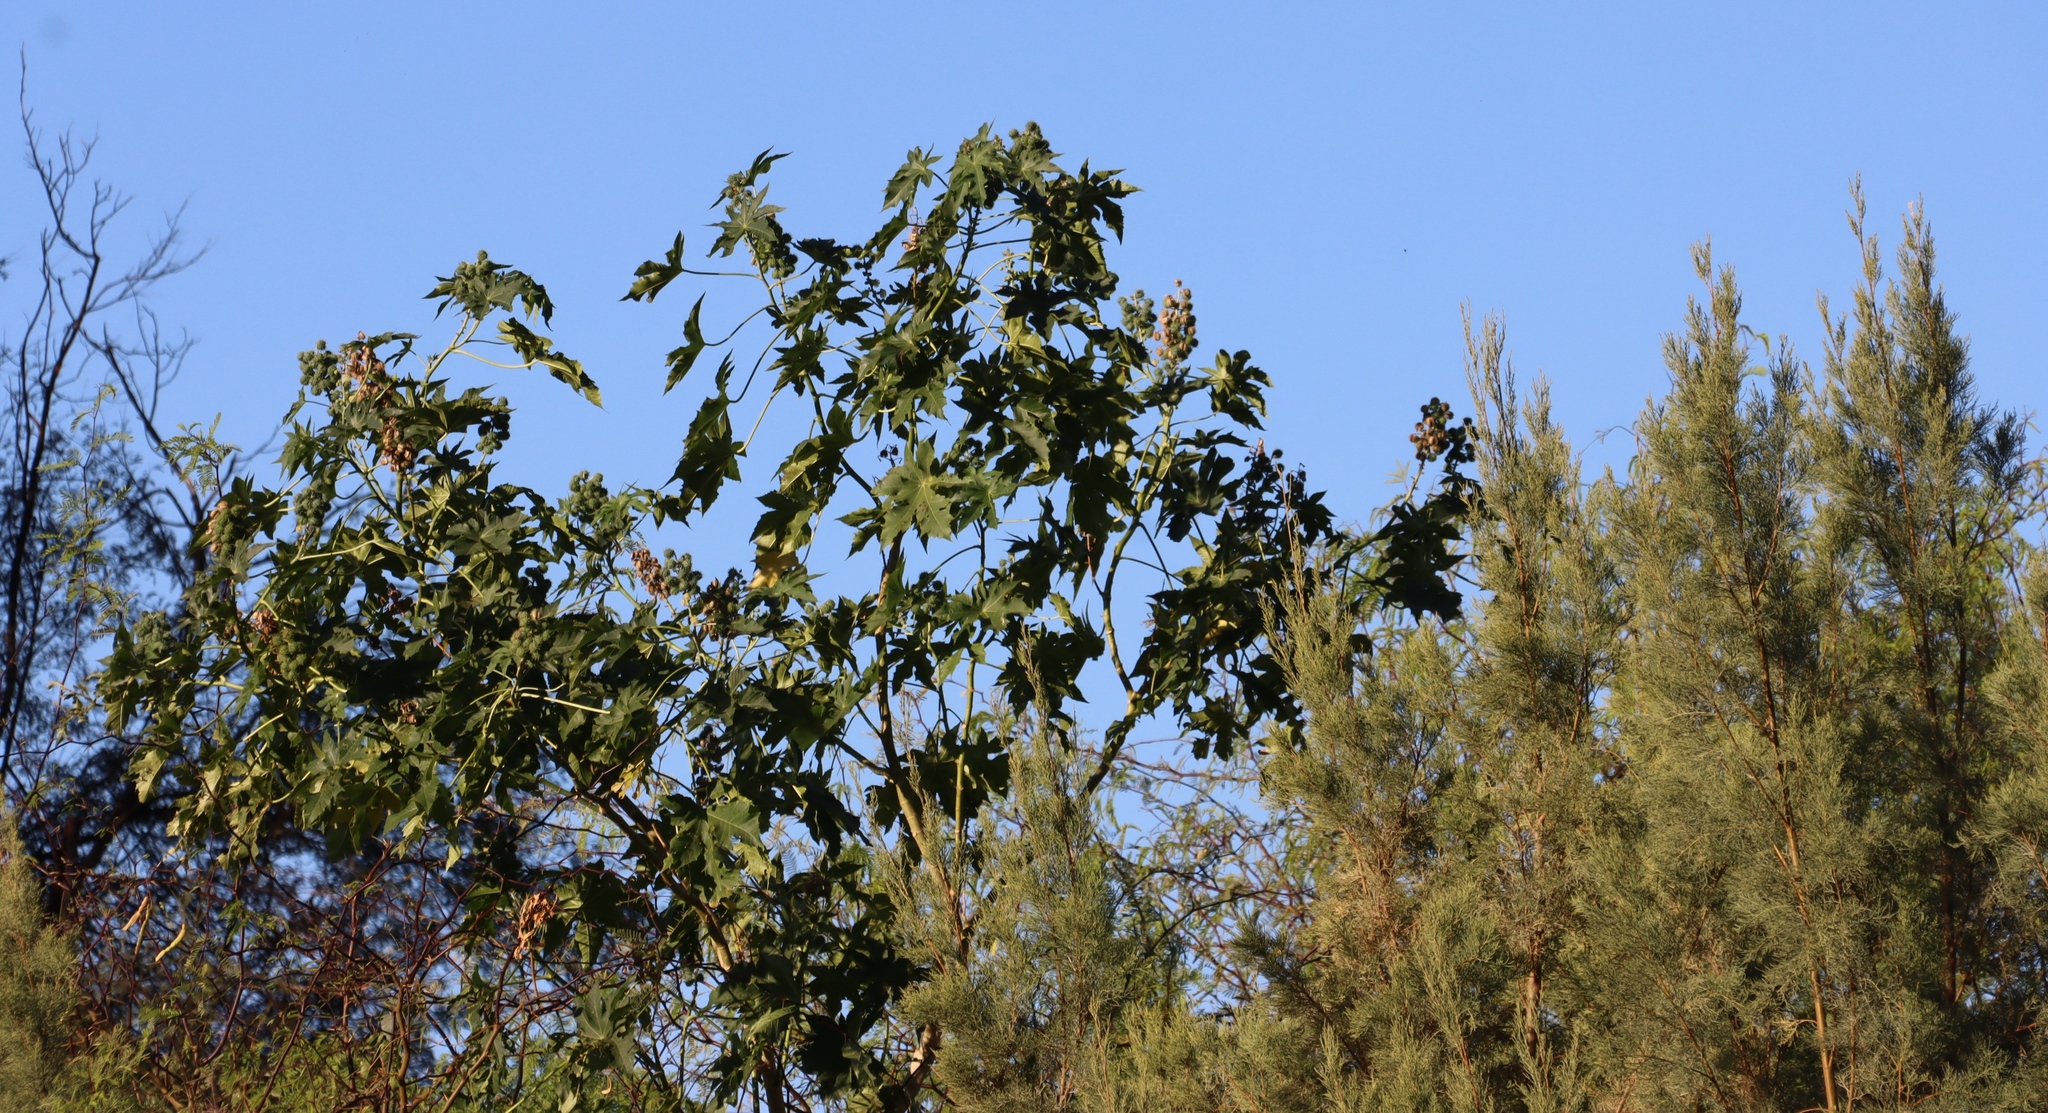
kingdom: Plantae
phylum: Tracheophyta
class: Magnoliopsida
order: Malpighiales
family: Euphorbiaceae
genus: Ricinus
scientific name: Ricinus communis
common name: Castor-oil-plant
